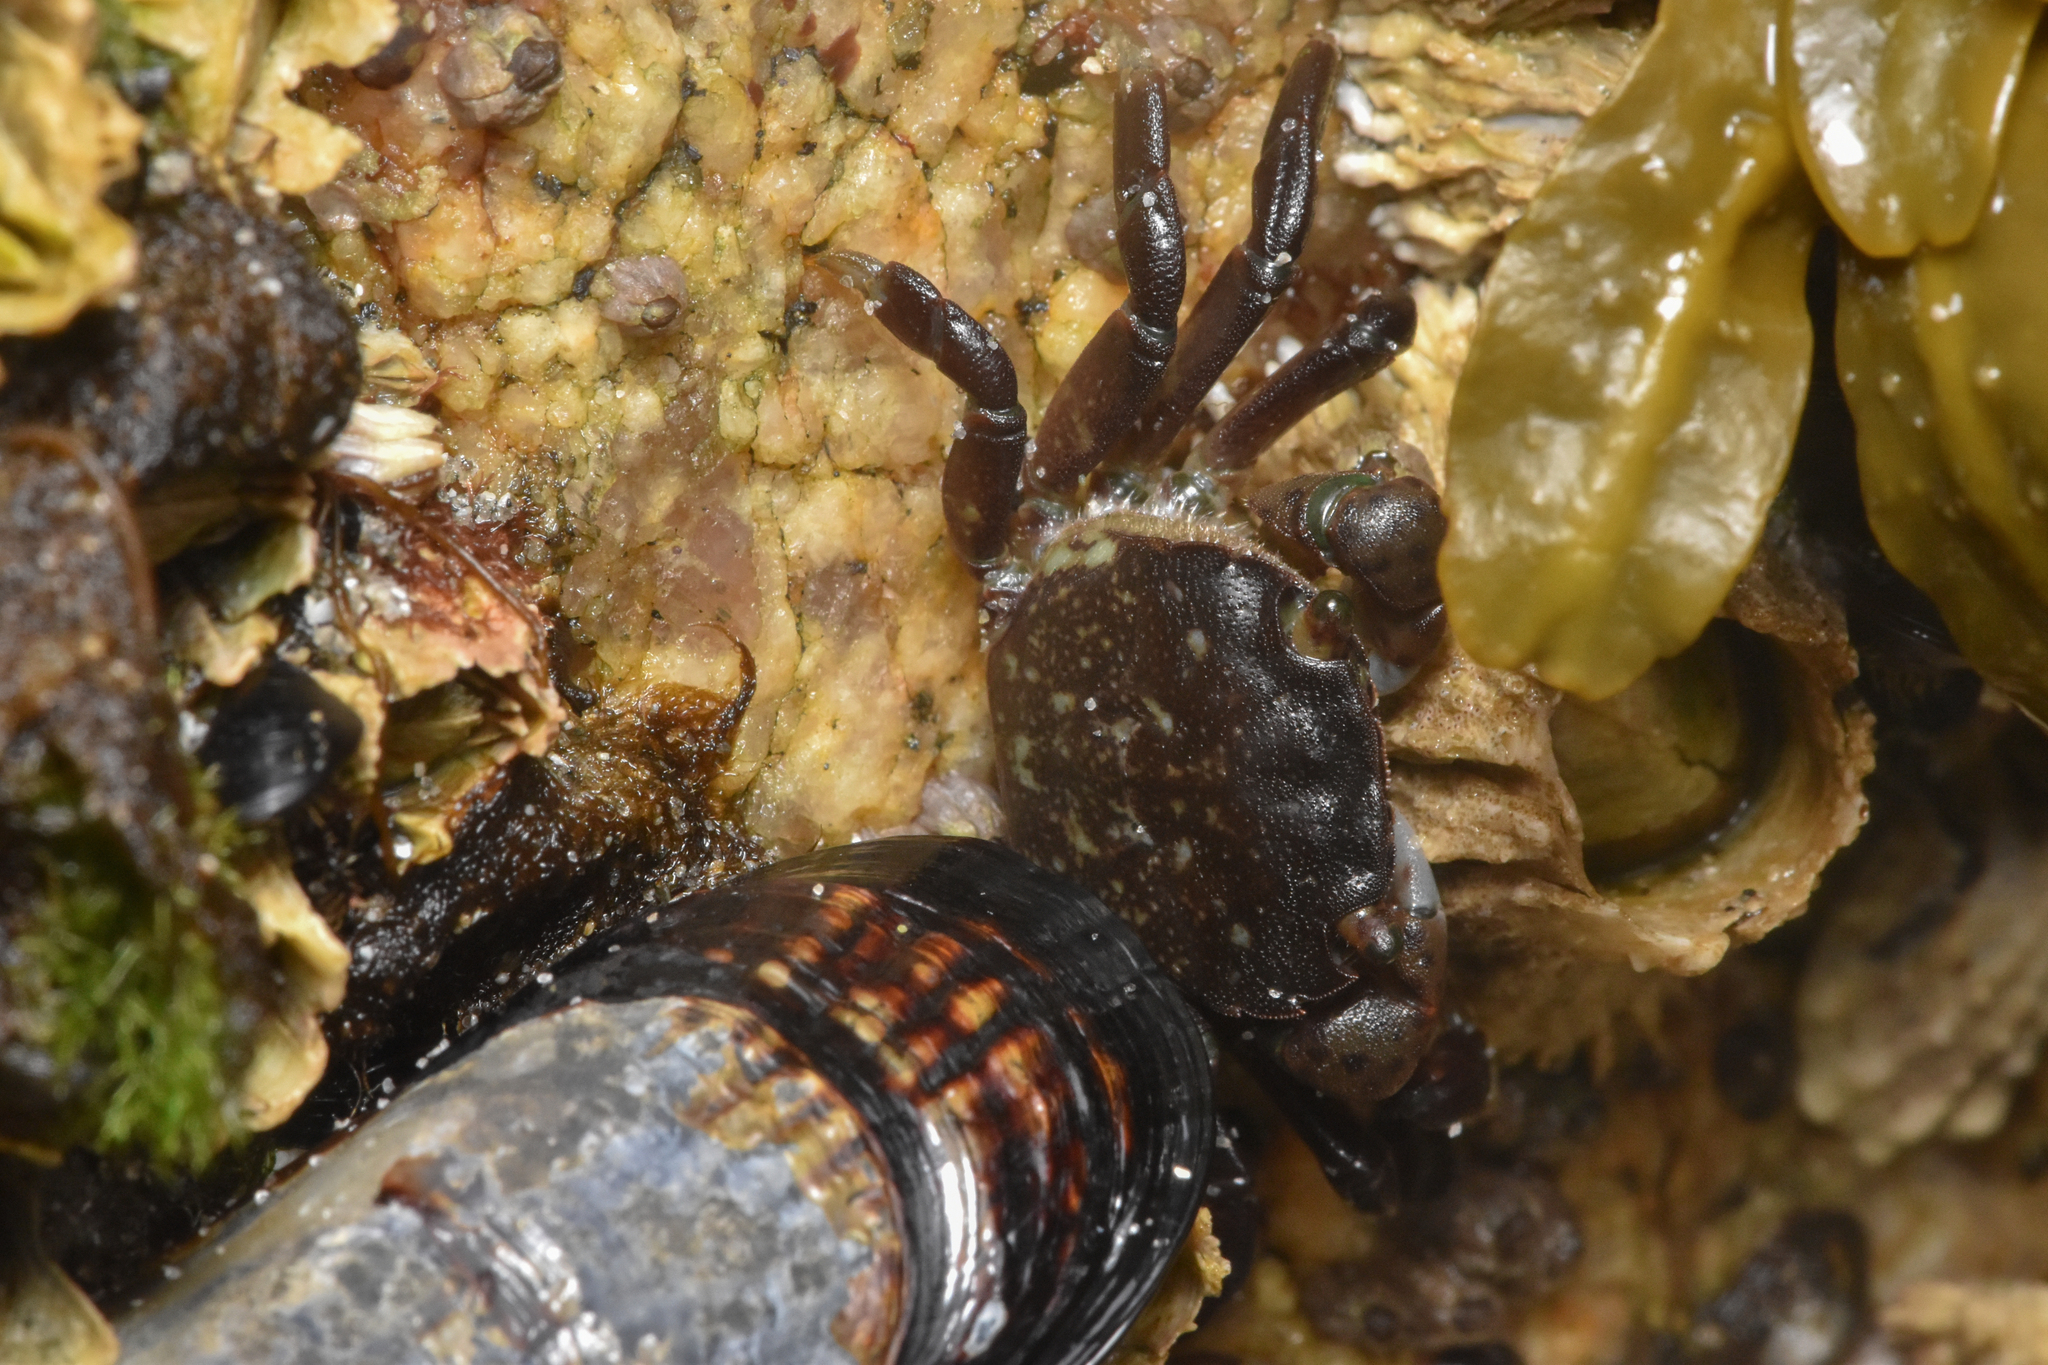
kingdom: Animalia
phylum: Arthropoda
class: Malacostraca
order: Decapoda
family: Varunidae
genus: Hemigrapsus
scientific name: Hemigrapsus nudus
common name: Purple shore crab
